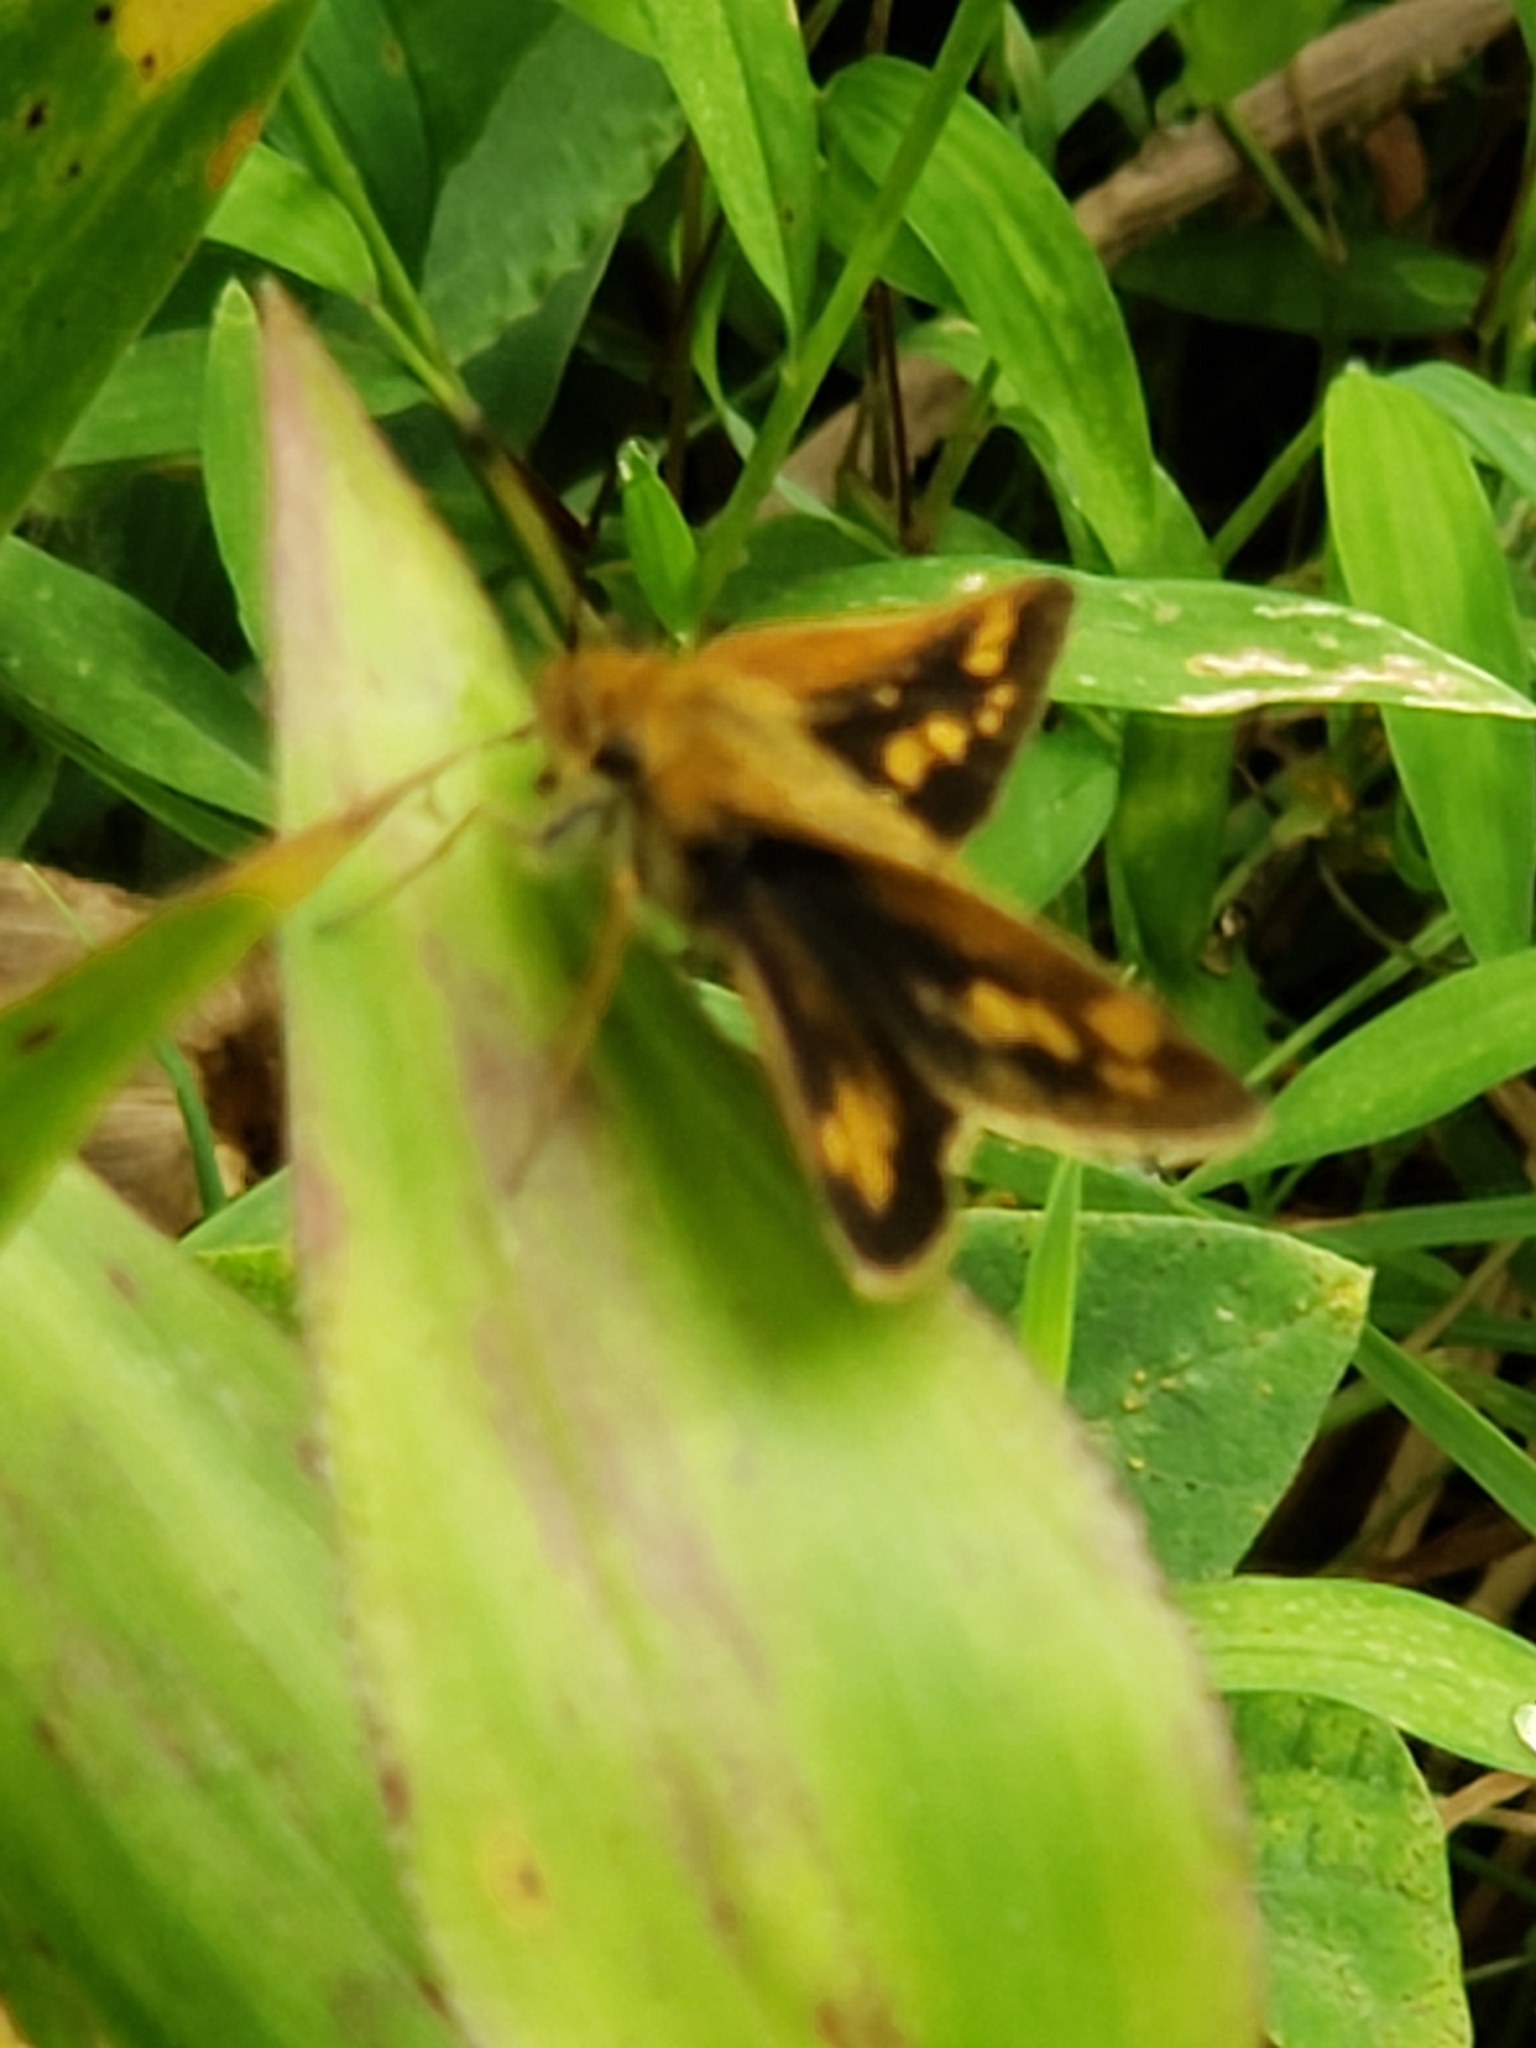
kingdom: Animalia
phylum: Arthropoda
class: Insecta
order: Lepidoptera
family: Hesperiidae
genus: Polites
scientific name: Polites coras
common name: Peck's skipper
